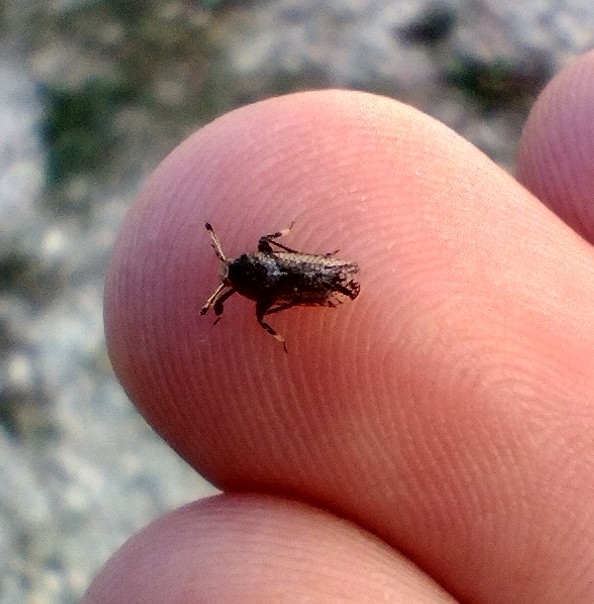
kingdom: Animalia
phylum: Arthropoda
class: Insecta
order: Hemiptera
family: Delphacidae
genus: Asiraca
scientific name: Asiraca clavicornis
